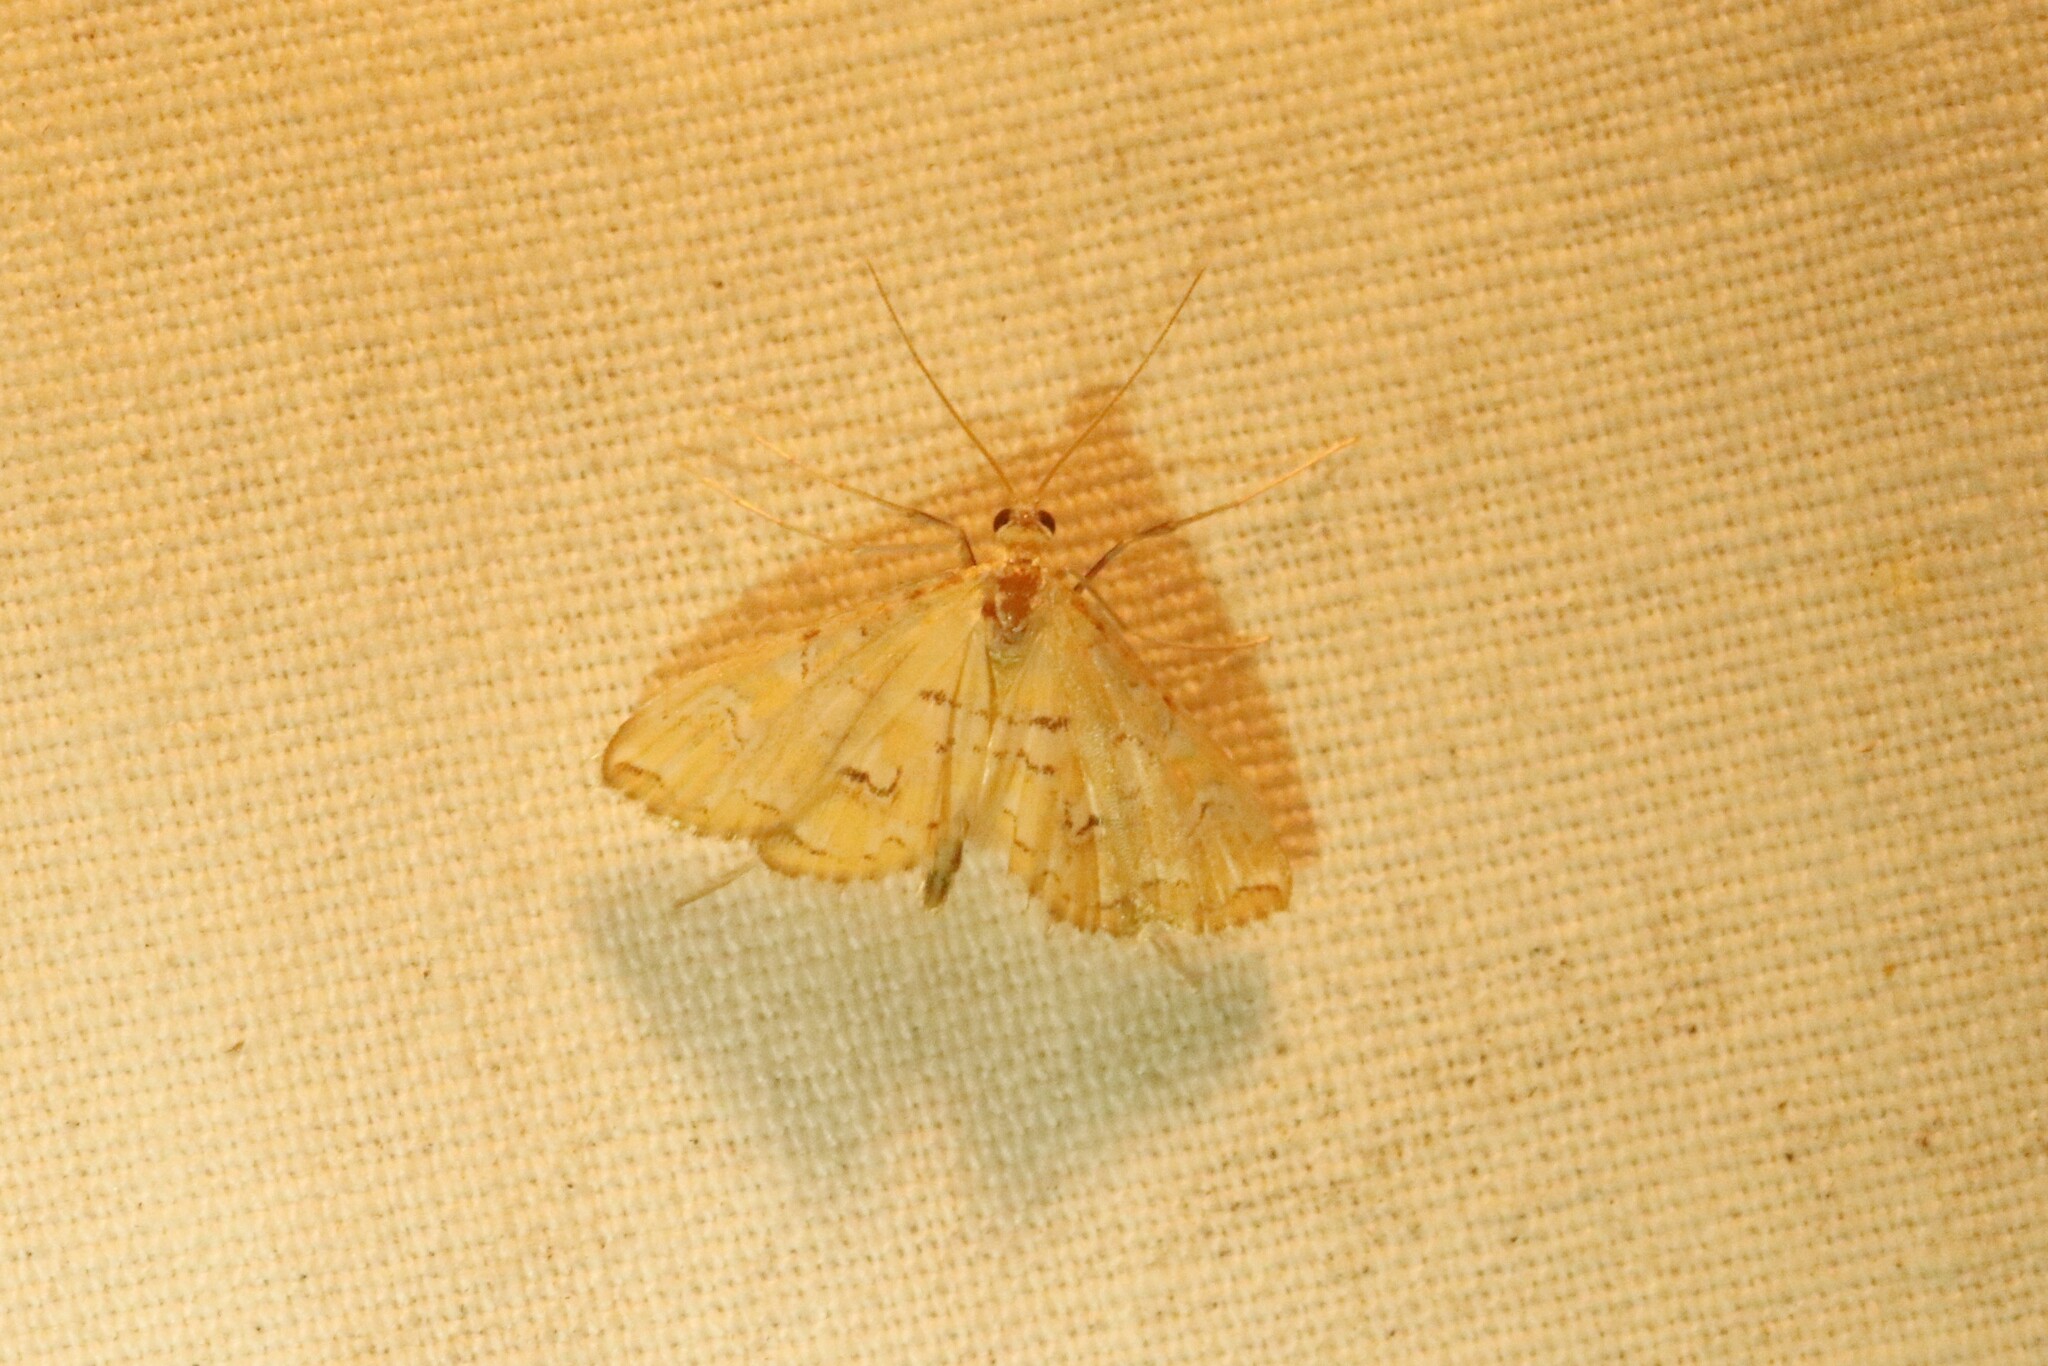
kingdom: Animalia
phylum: Arthropoda
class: Insecta
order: Lepidoptera
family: Crambidae
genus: Elophila
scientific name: Elophila icciusalis
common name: Pondside pyralid moth
